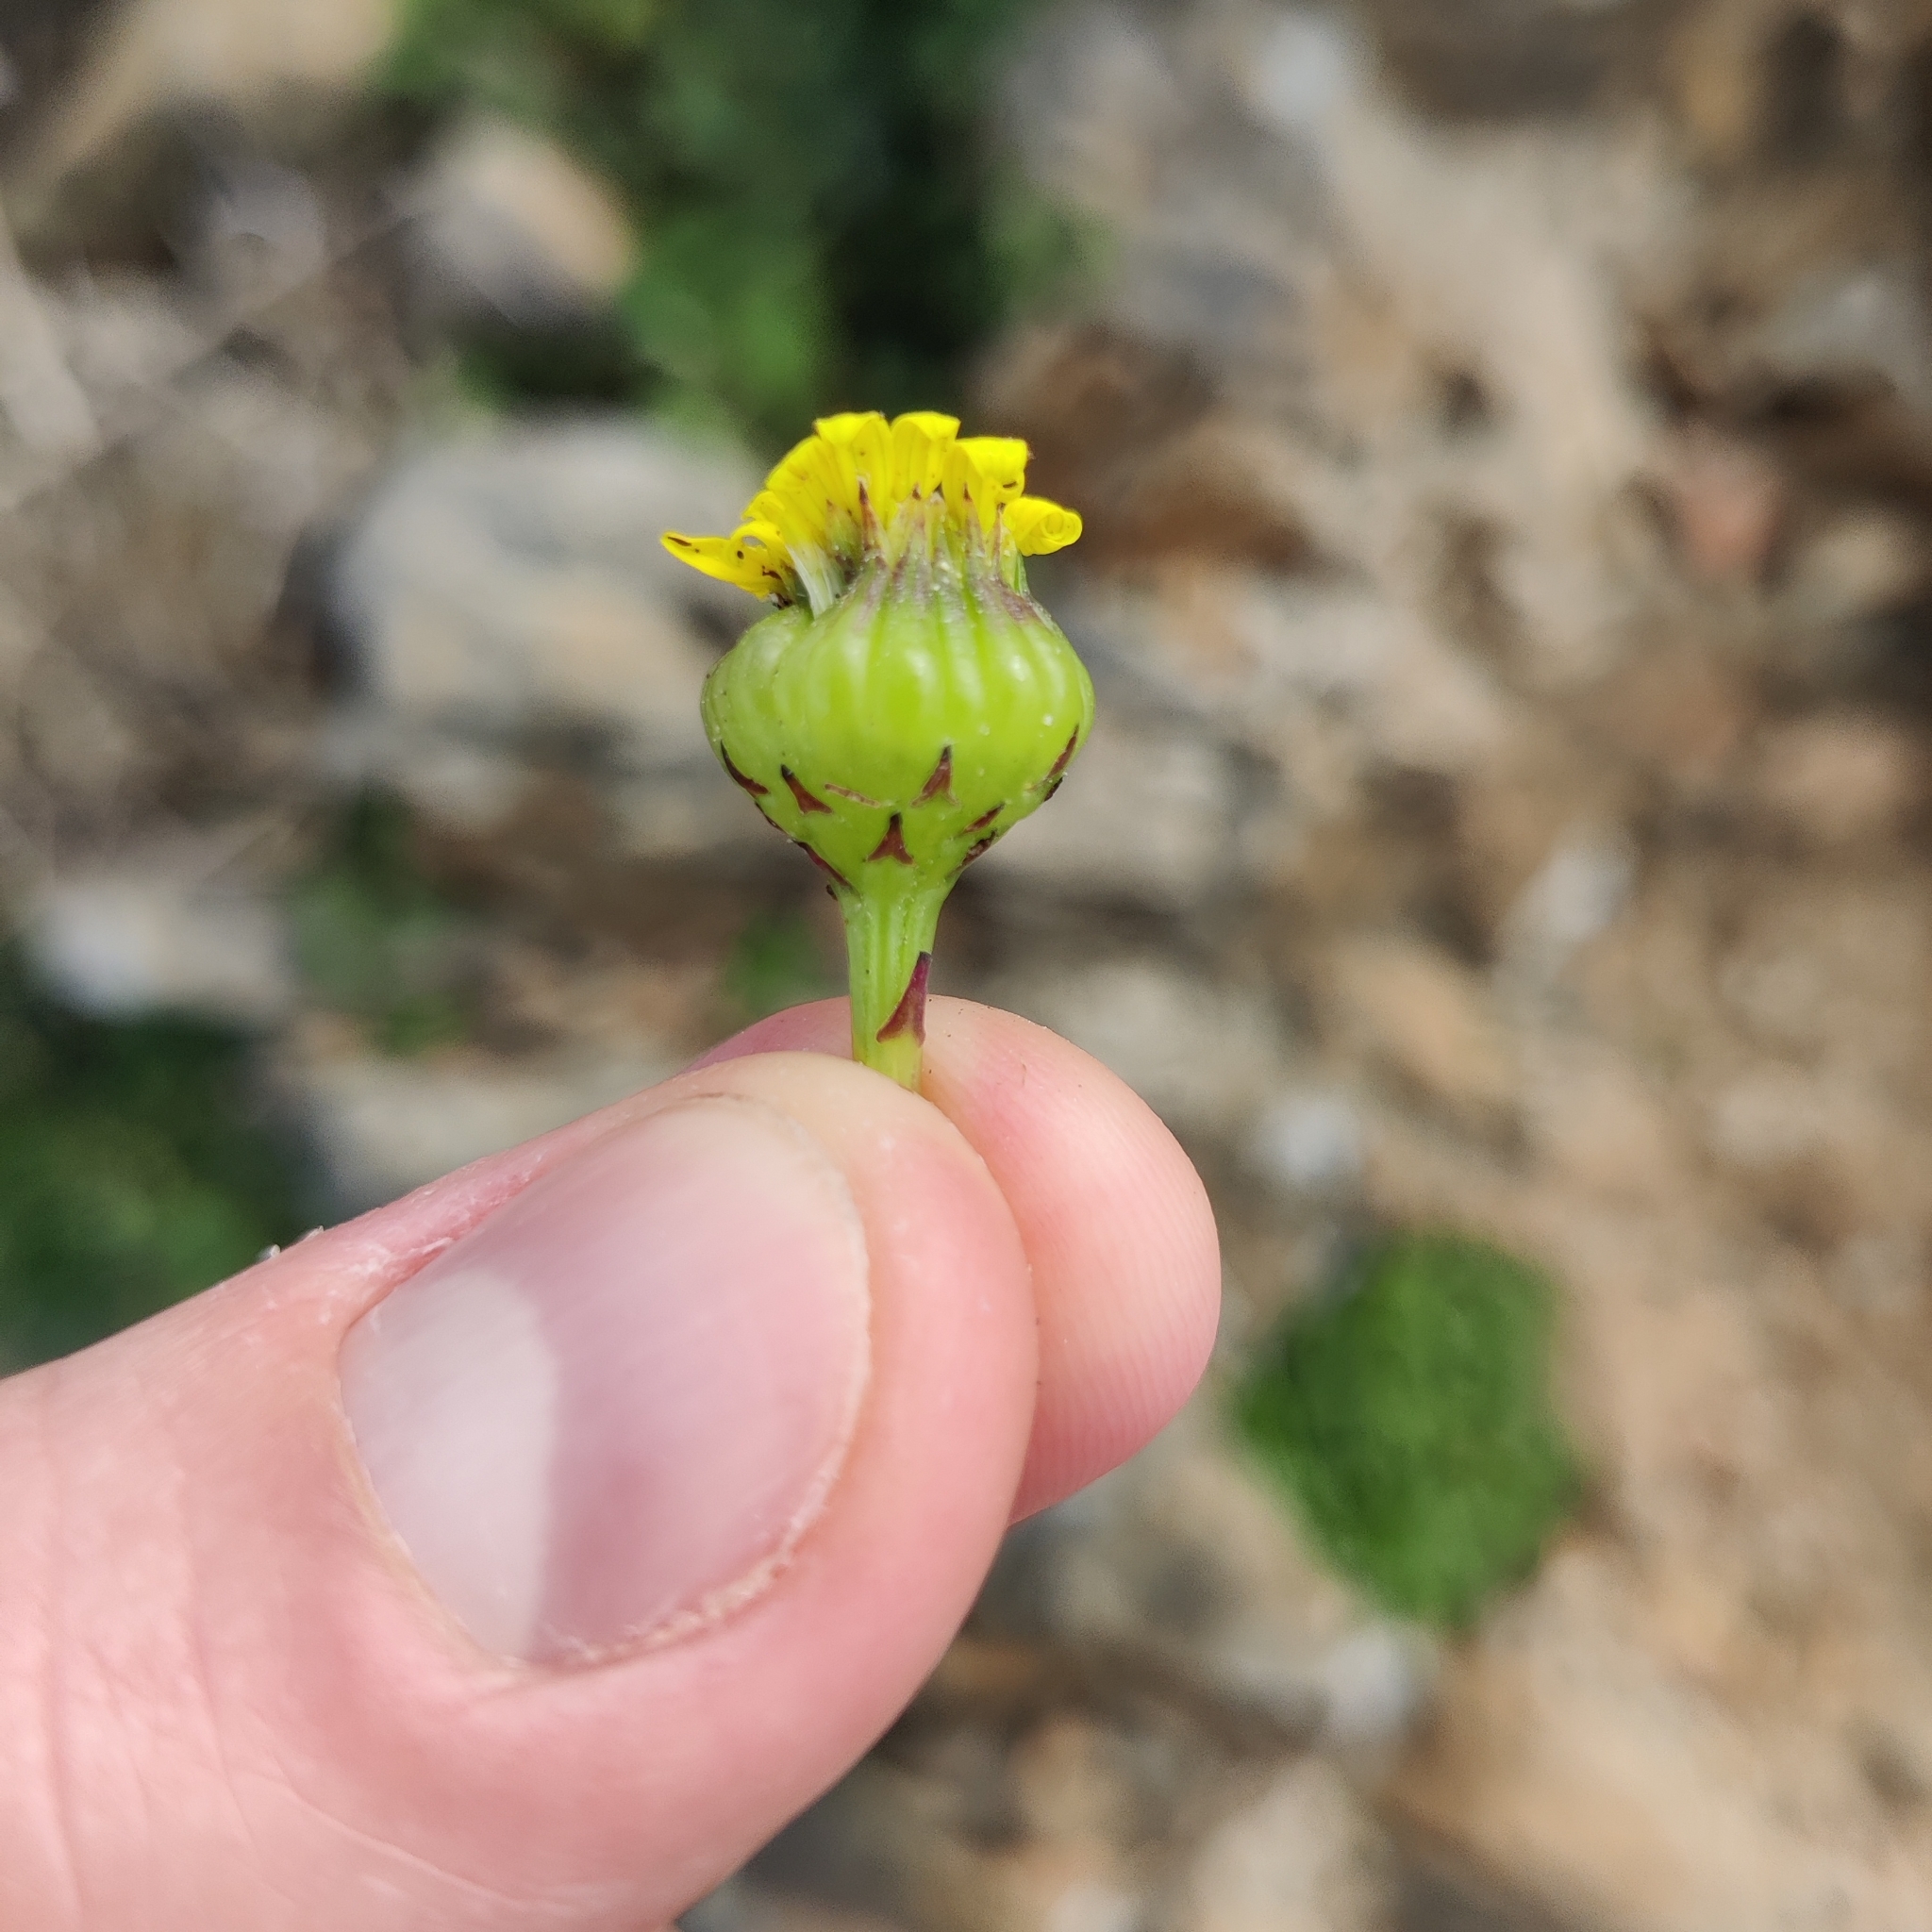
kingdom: Plantae
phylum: Tracheophyta
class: Magnoliopsida
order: Asterales
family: Asteraceae
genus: Senecio
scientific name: Senecio lautus
